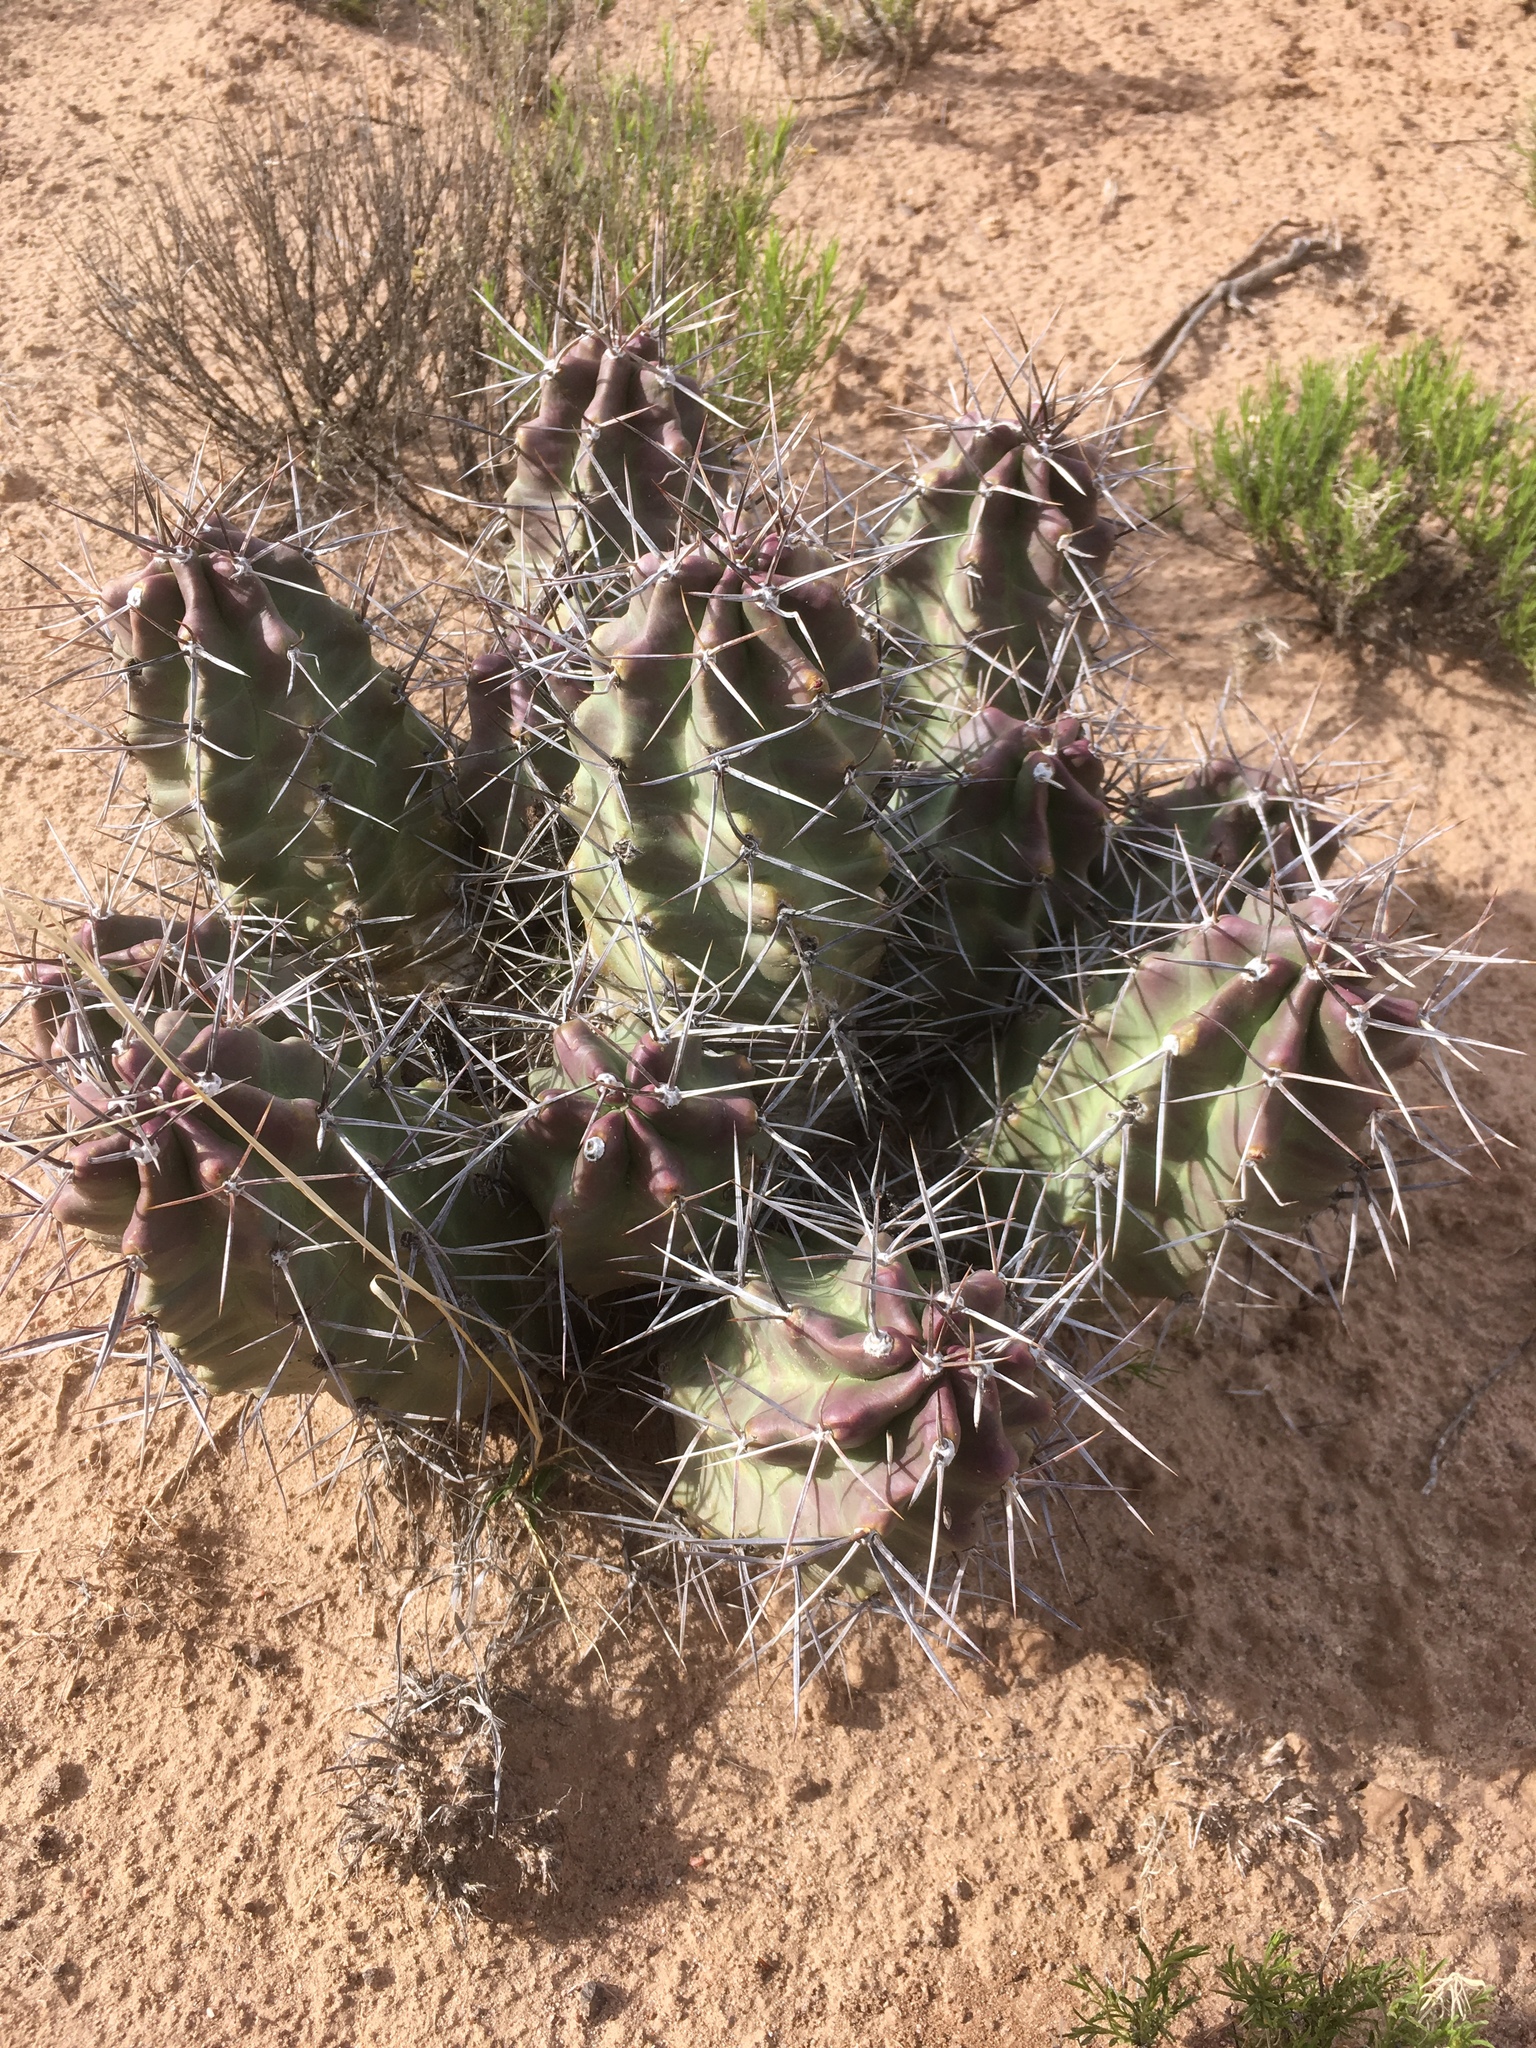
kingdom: Plantae
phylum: Tracheophyta
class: Magnoliopsida
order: Caryophyllales
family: Cactaceae
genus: Echinocereus
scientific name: Echinocereus triglochidiatus
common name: Claretcup hedgehog
